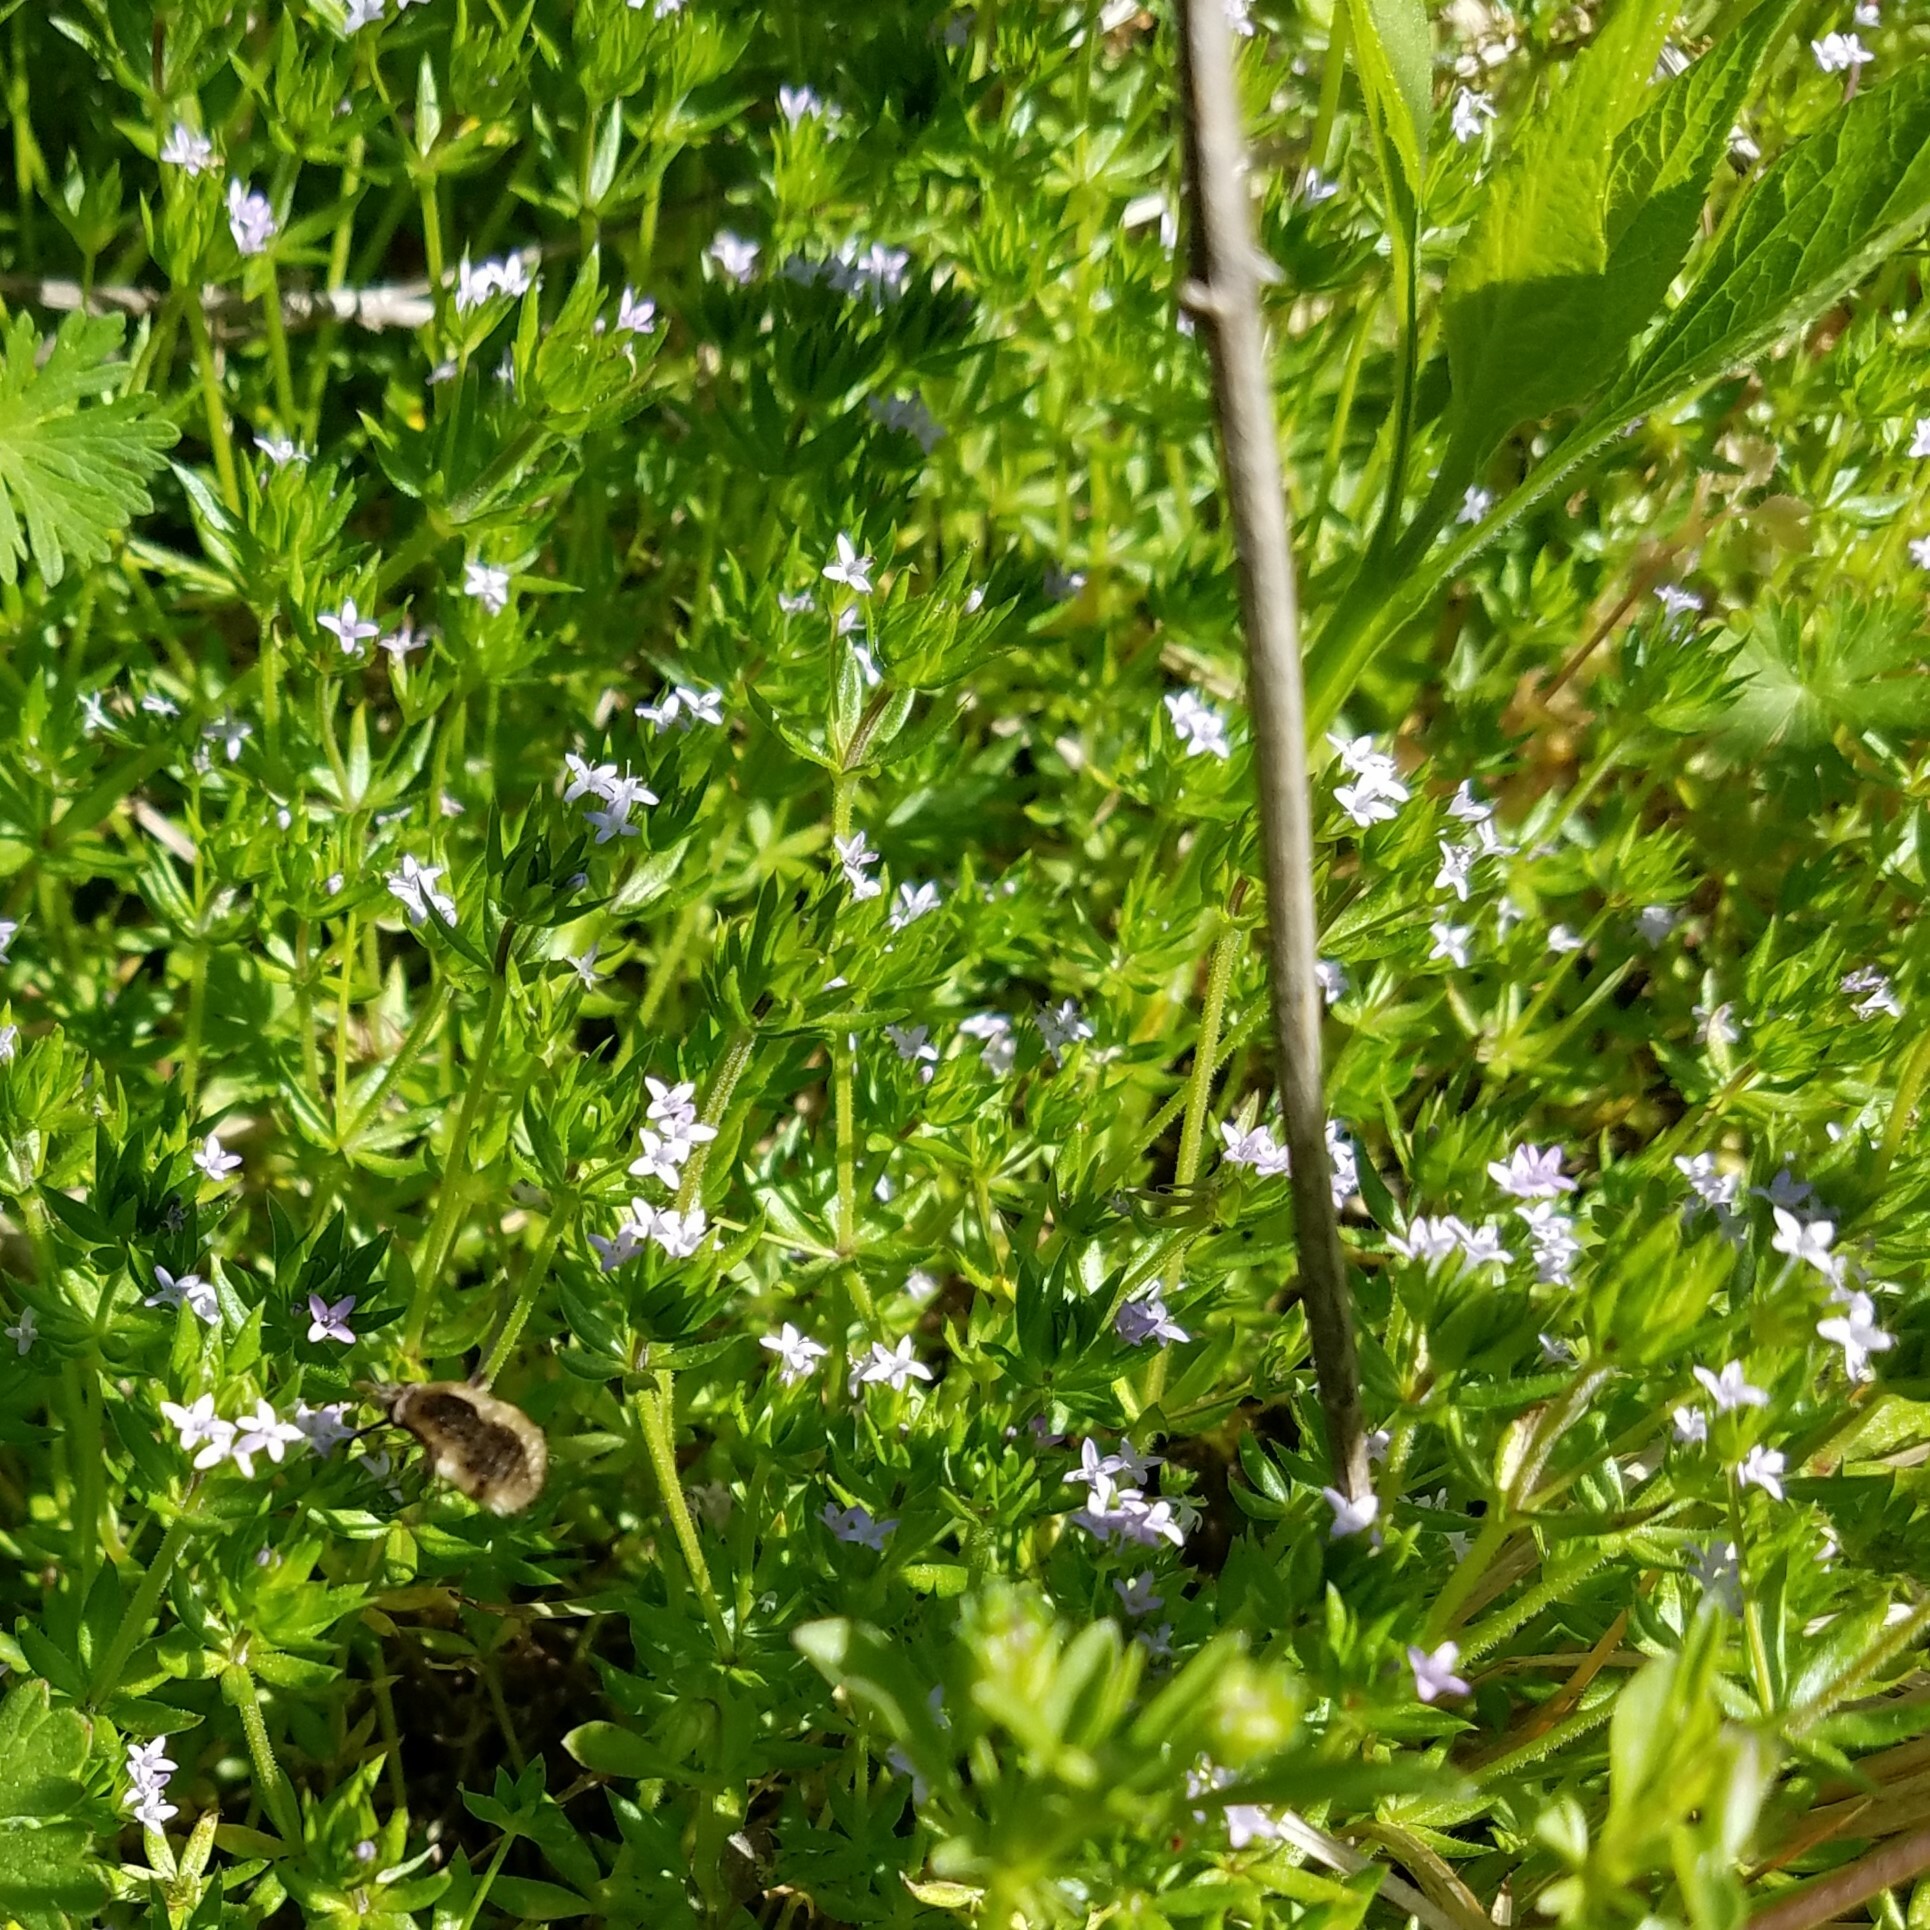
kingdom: Plantae
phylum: Tracheophyta
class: Magnoliopsida
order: Gentianales
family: Rubiaceae
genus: Sherardia
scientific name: Sherardia arvensis
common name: Field madder
